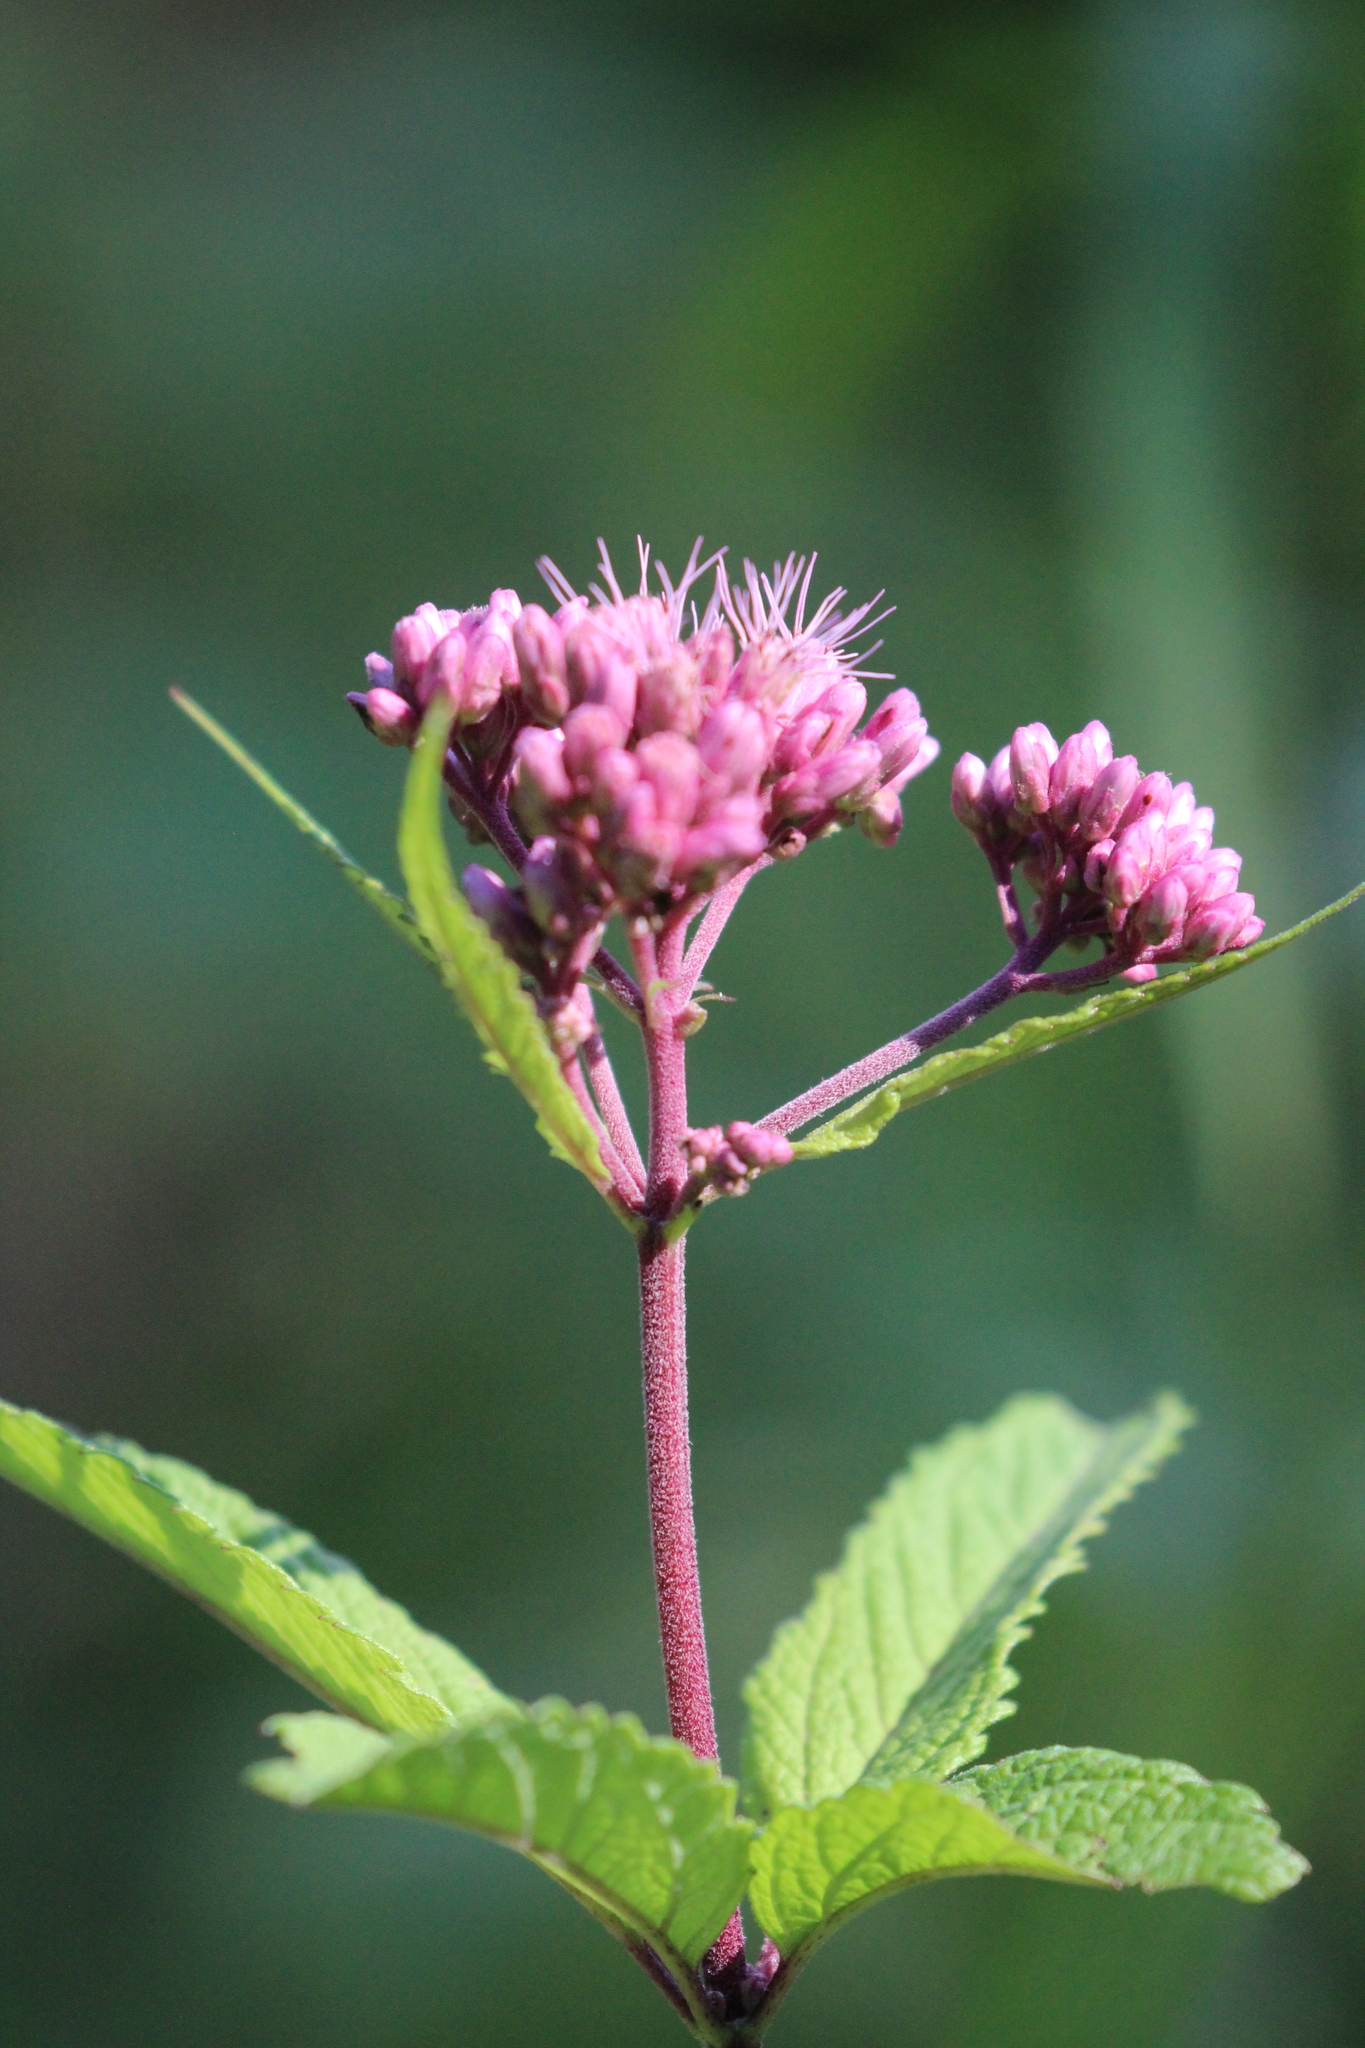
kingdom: Plantae
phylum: Tracheophyta
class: Magnoliopsida
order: Asterales
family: Asteraceae
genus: Eutrochium
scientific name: Eutrochium maculatum
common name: Spotted joe pye weed
